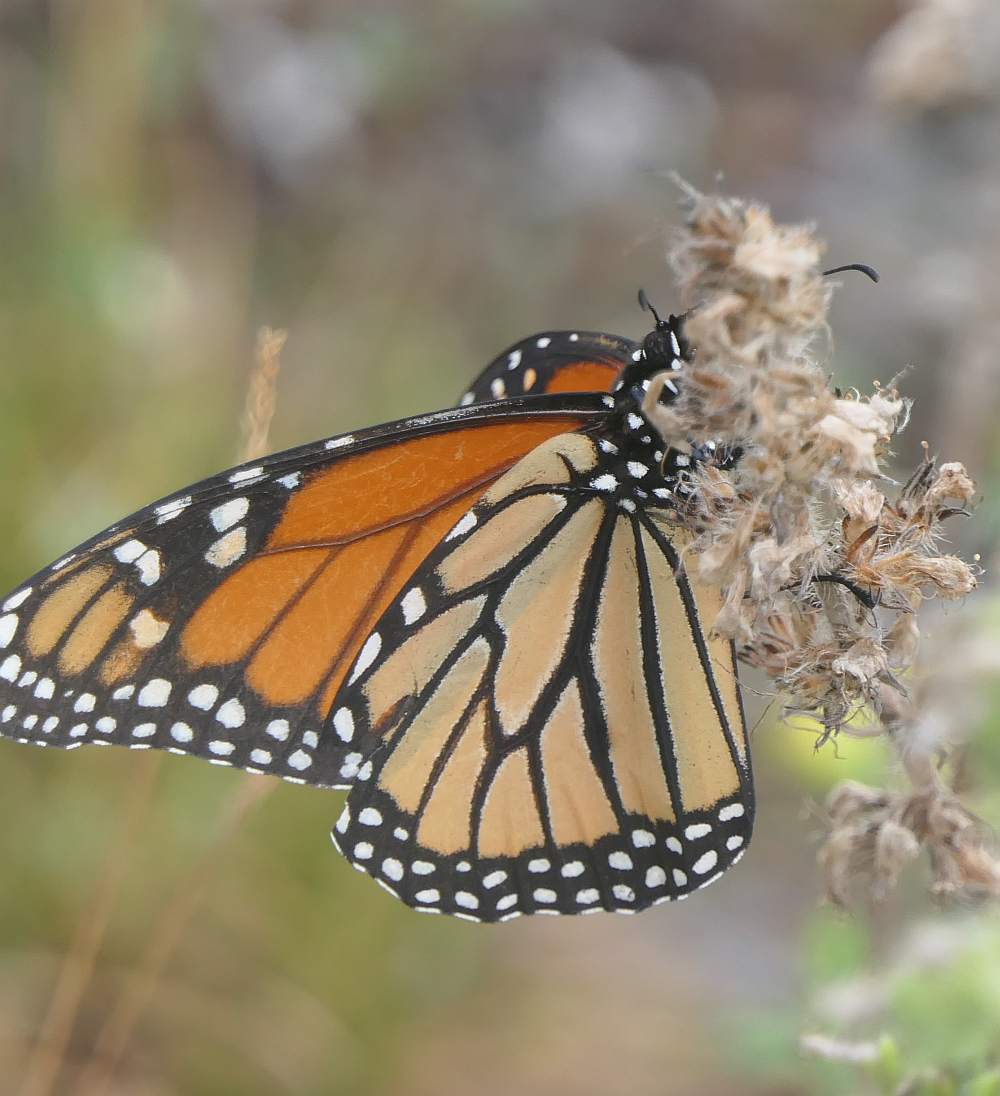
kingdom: Animalia
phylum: Arthropoda
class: Insecta
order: Lepidoptera
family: Nymphalidae
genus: Danaus
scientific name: Danaus plexippus
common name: Monarch
